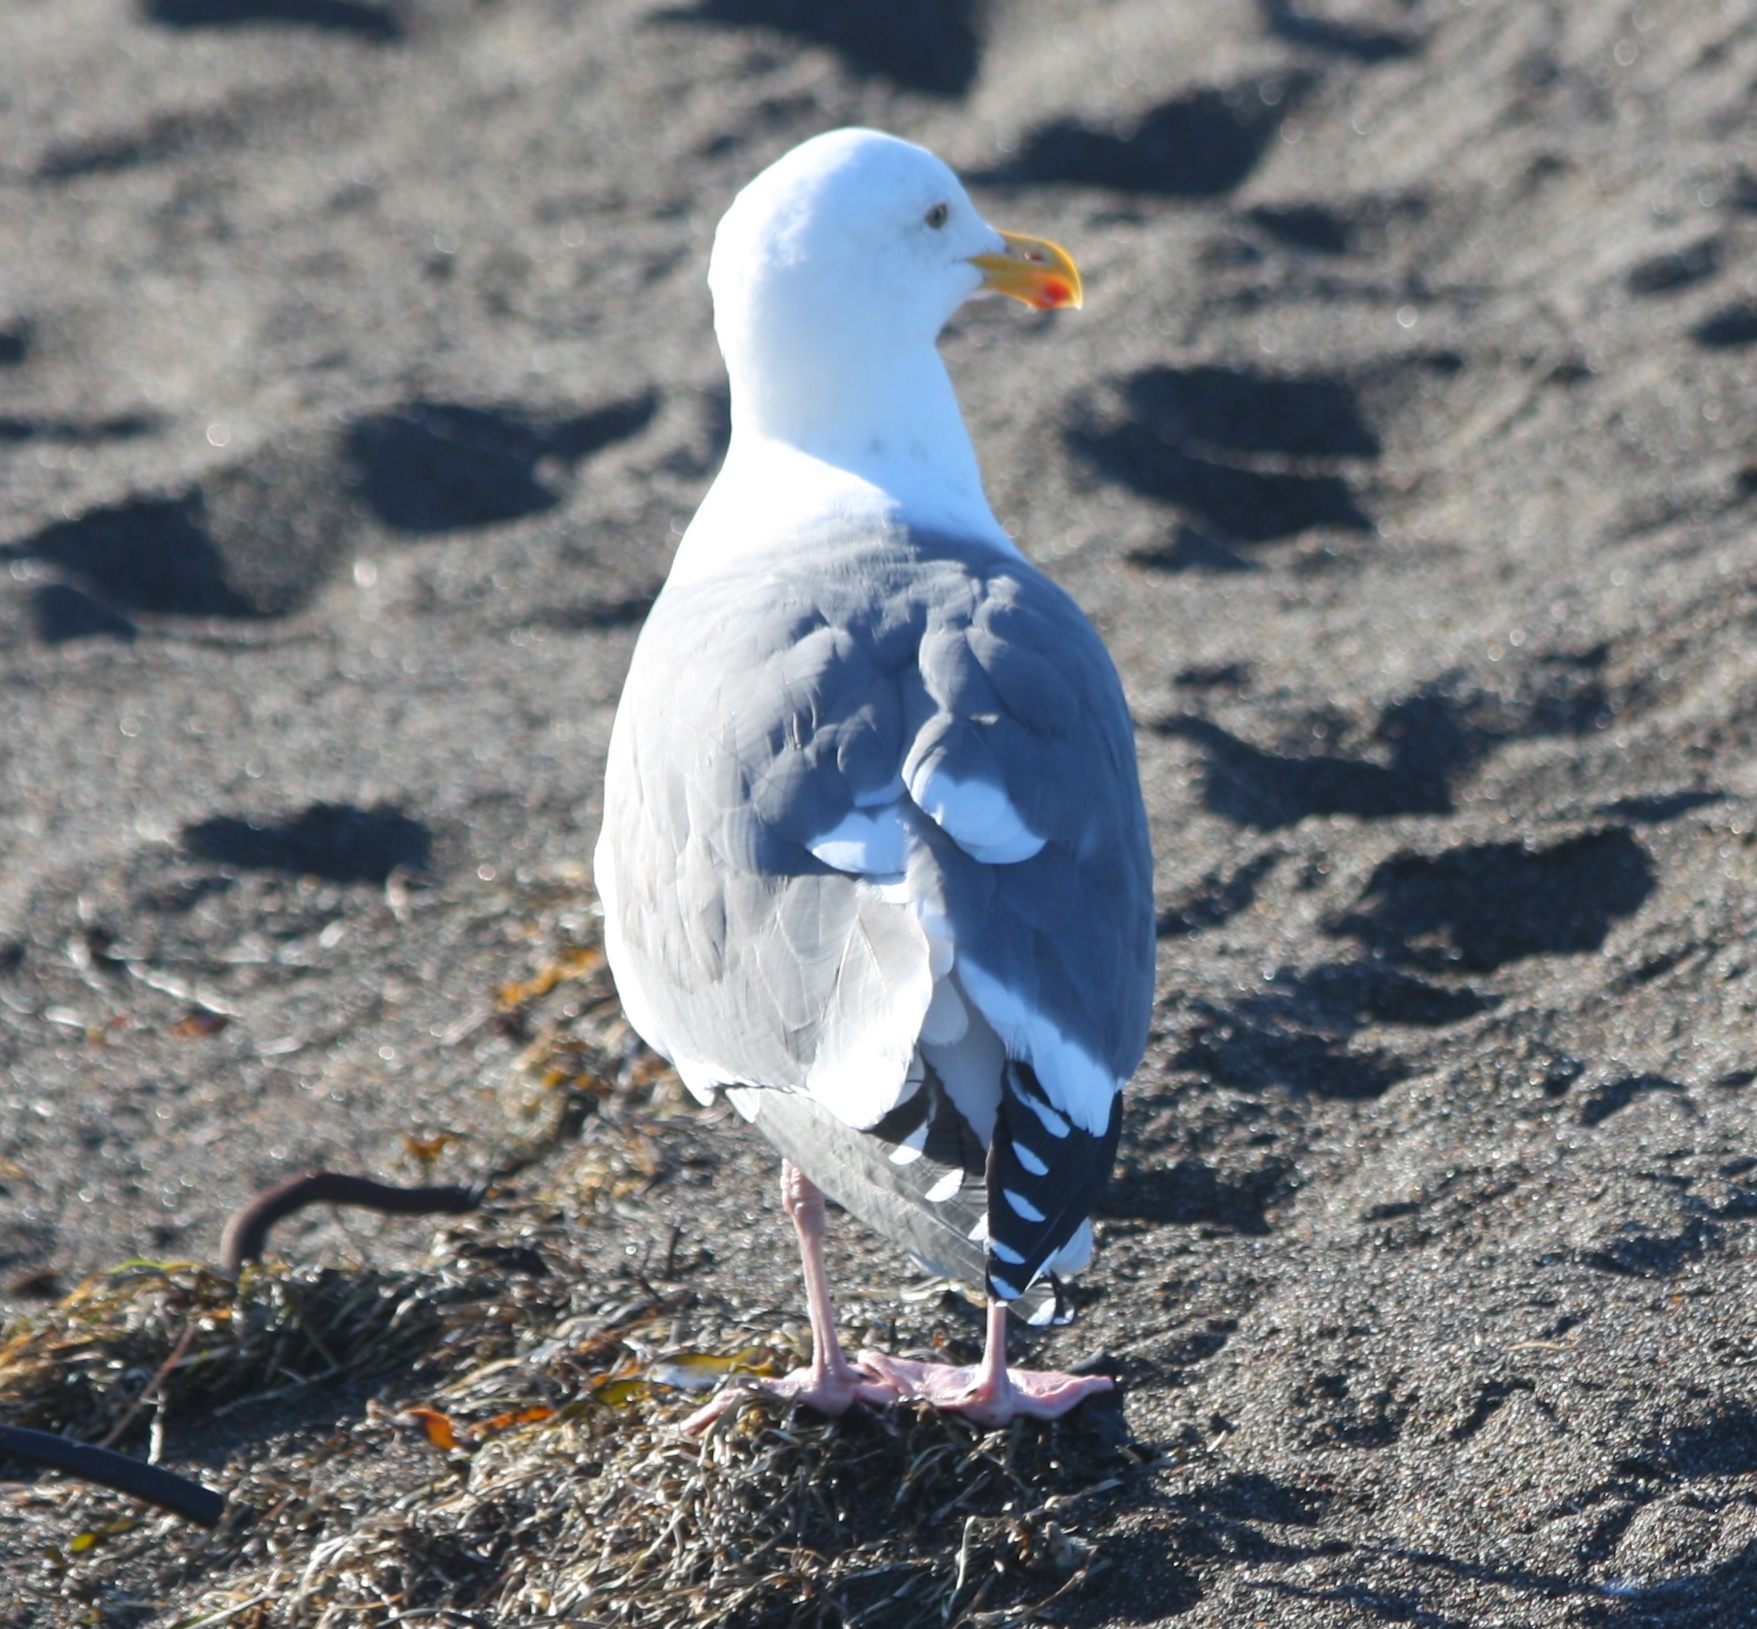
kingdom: Animalia
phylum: Chordata
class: Aves
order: Charadriiformes
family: Laridae
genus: Larus
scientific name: Larus occidentalis
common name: Western gull
